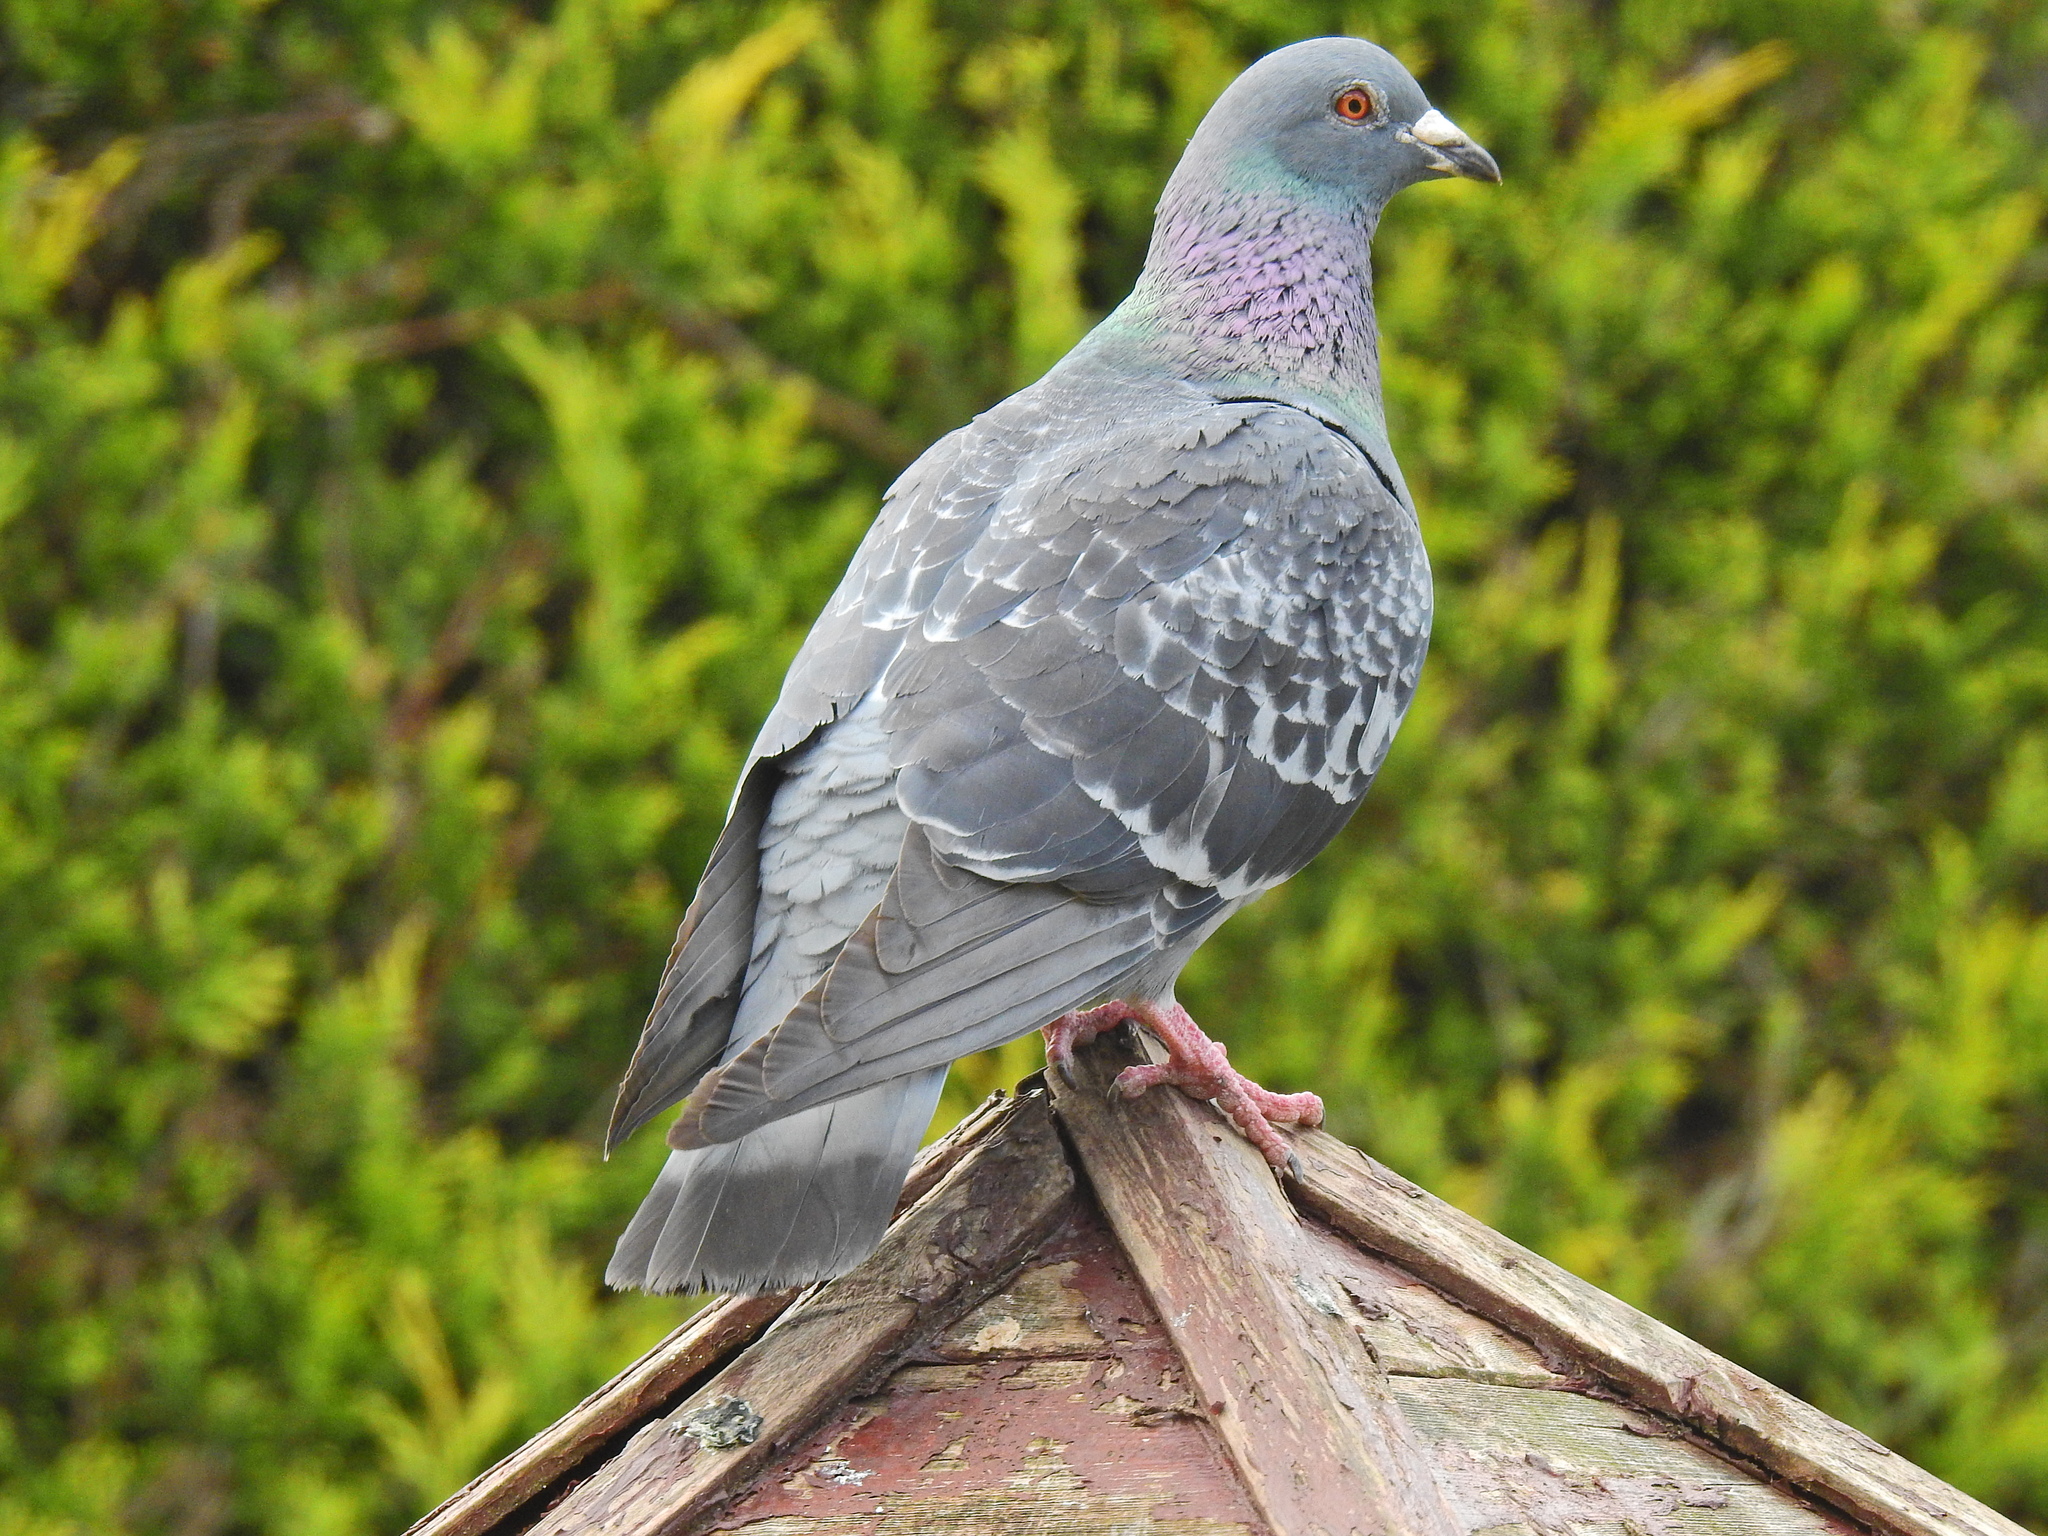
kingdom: Animalia
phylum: Chordata
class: Aves
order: Columbiformes
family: Columbidae
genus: Columba
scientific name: Columba livia
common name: Rock pigeon
